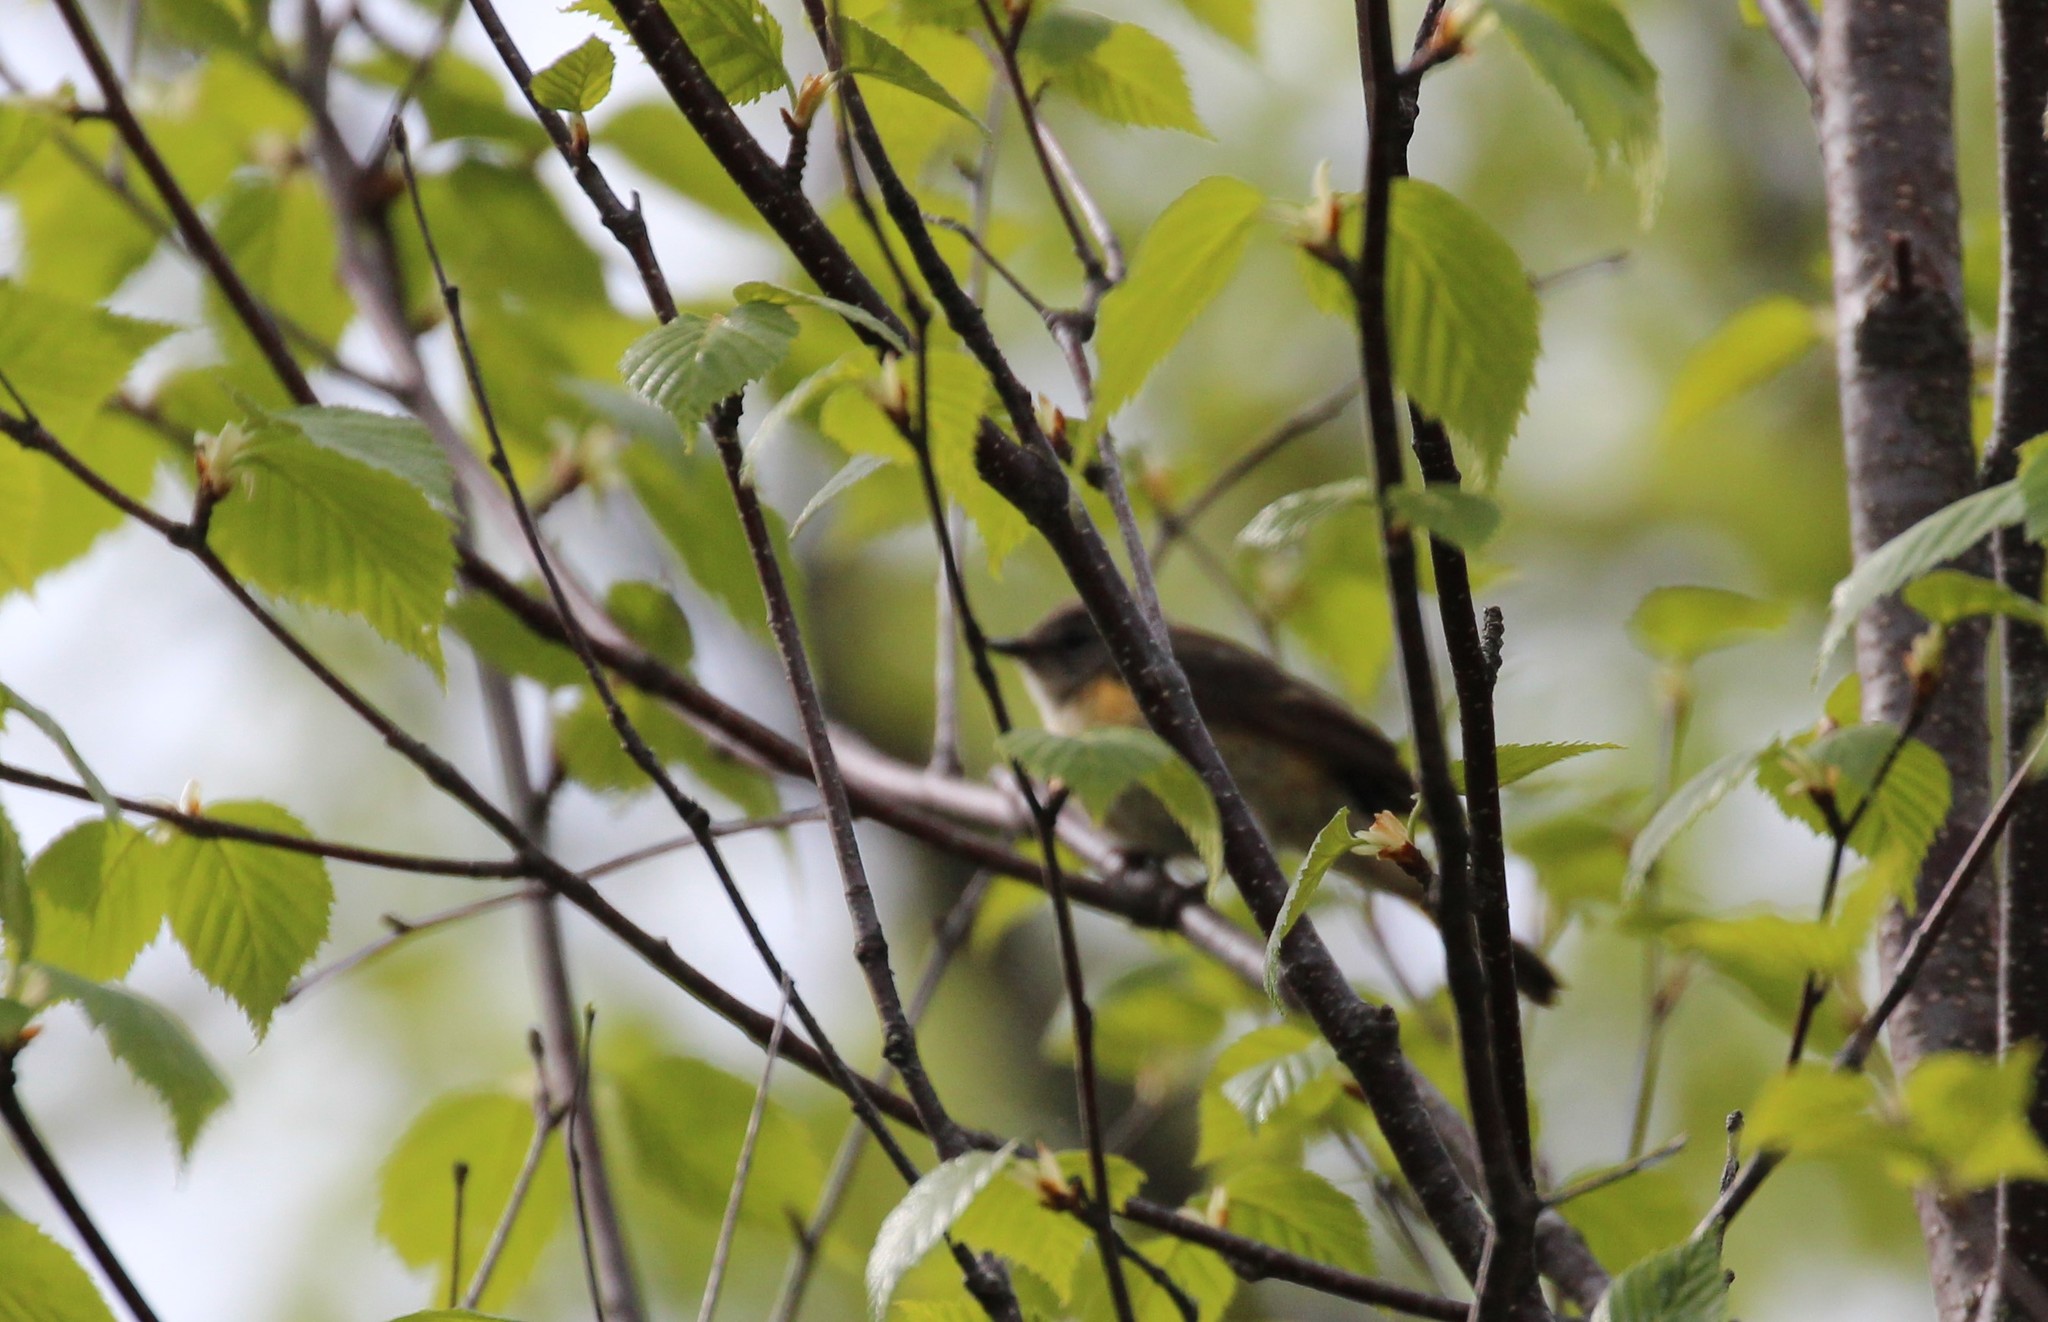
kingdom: Animalia
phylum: Chordata
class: Aves
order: Passeriformes
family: Parulidae
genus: Setophaga
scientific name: Setophaga ruticilla
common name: American redstart
